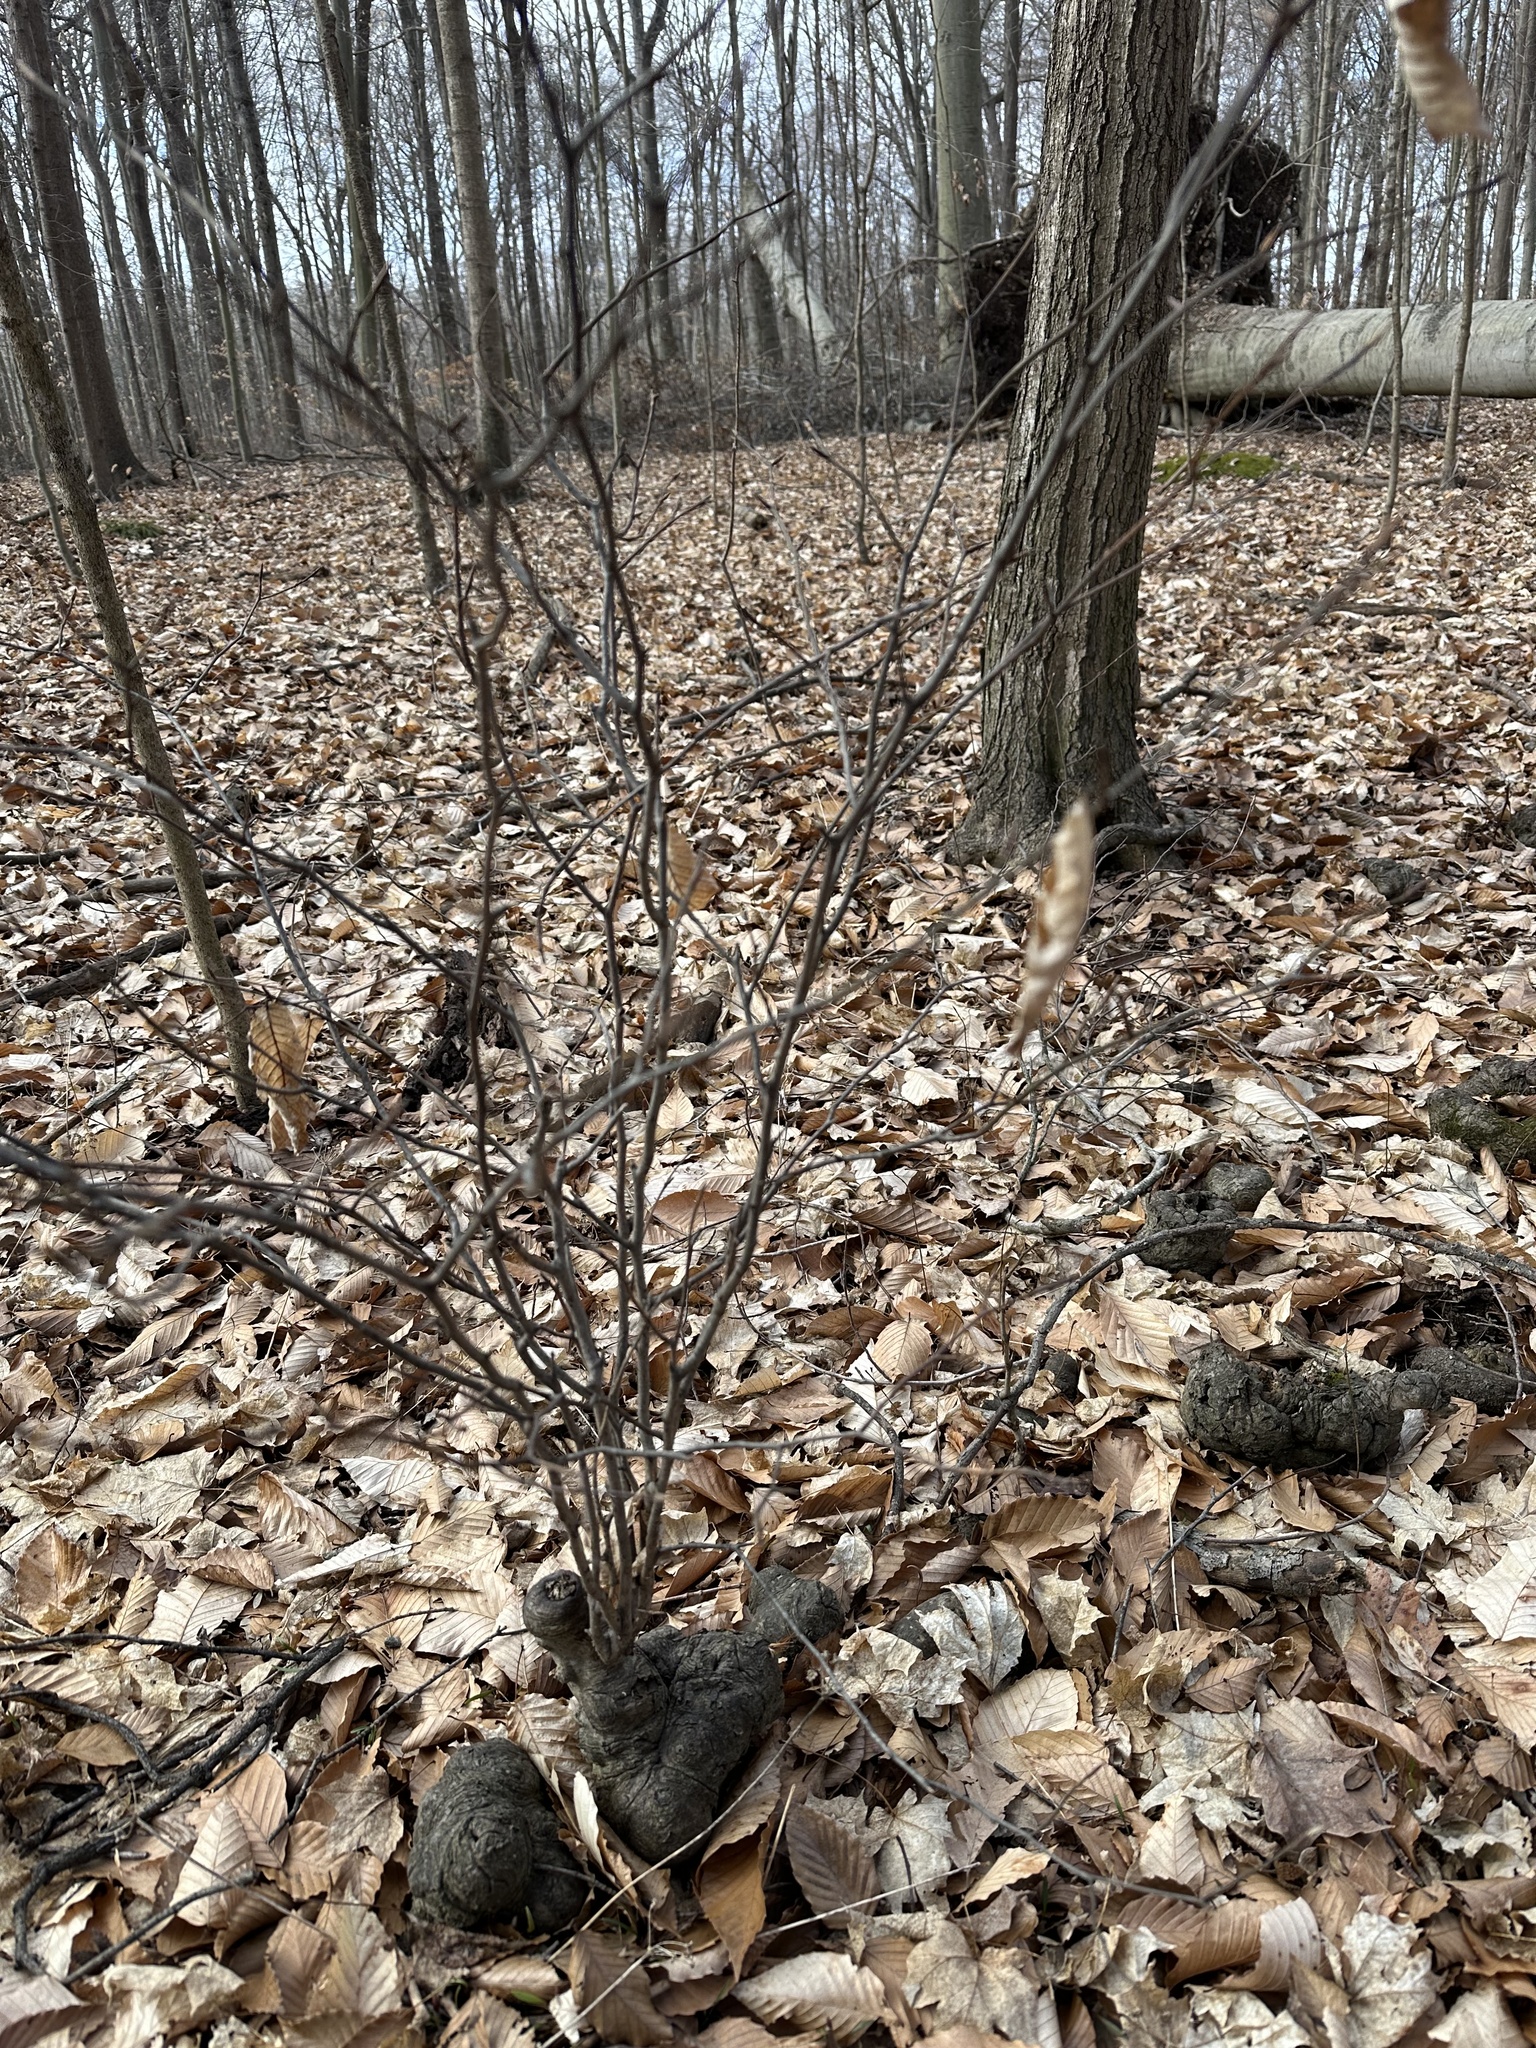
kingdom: Plantae
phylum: Tracheophyta
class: Magnoliopsida
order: Fagales
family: Fagaceae
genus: Fagus
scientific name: Fagus grandifolia
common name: American beech
